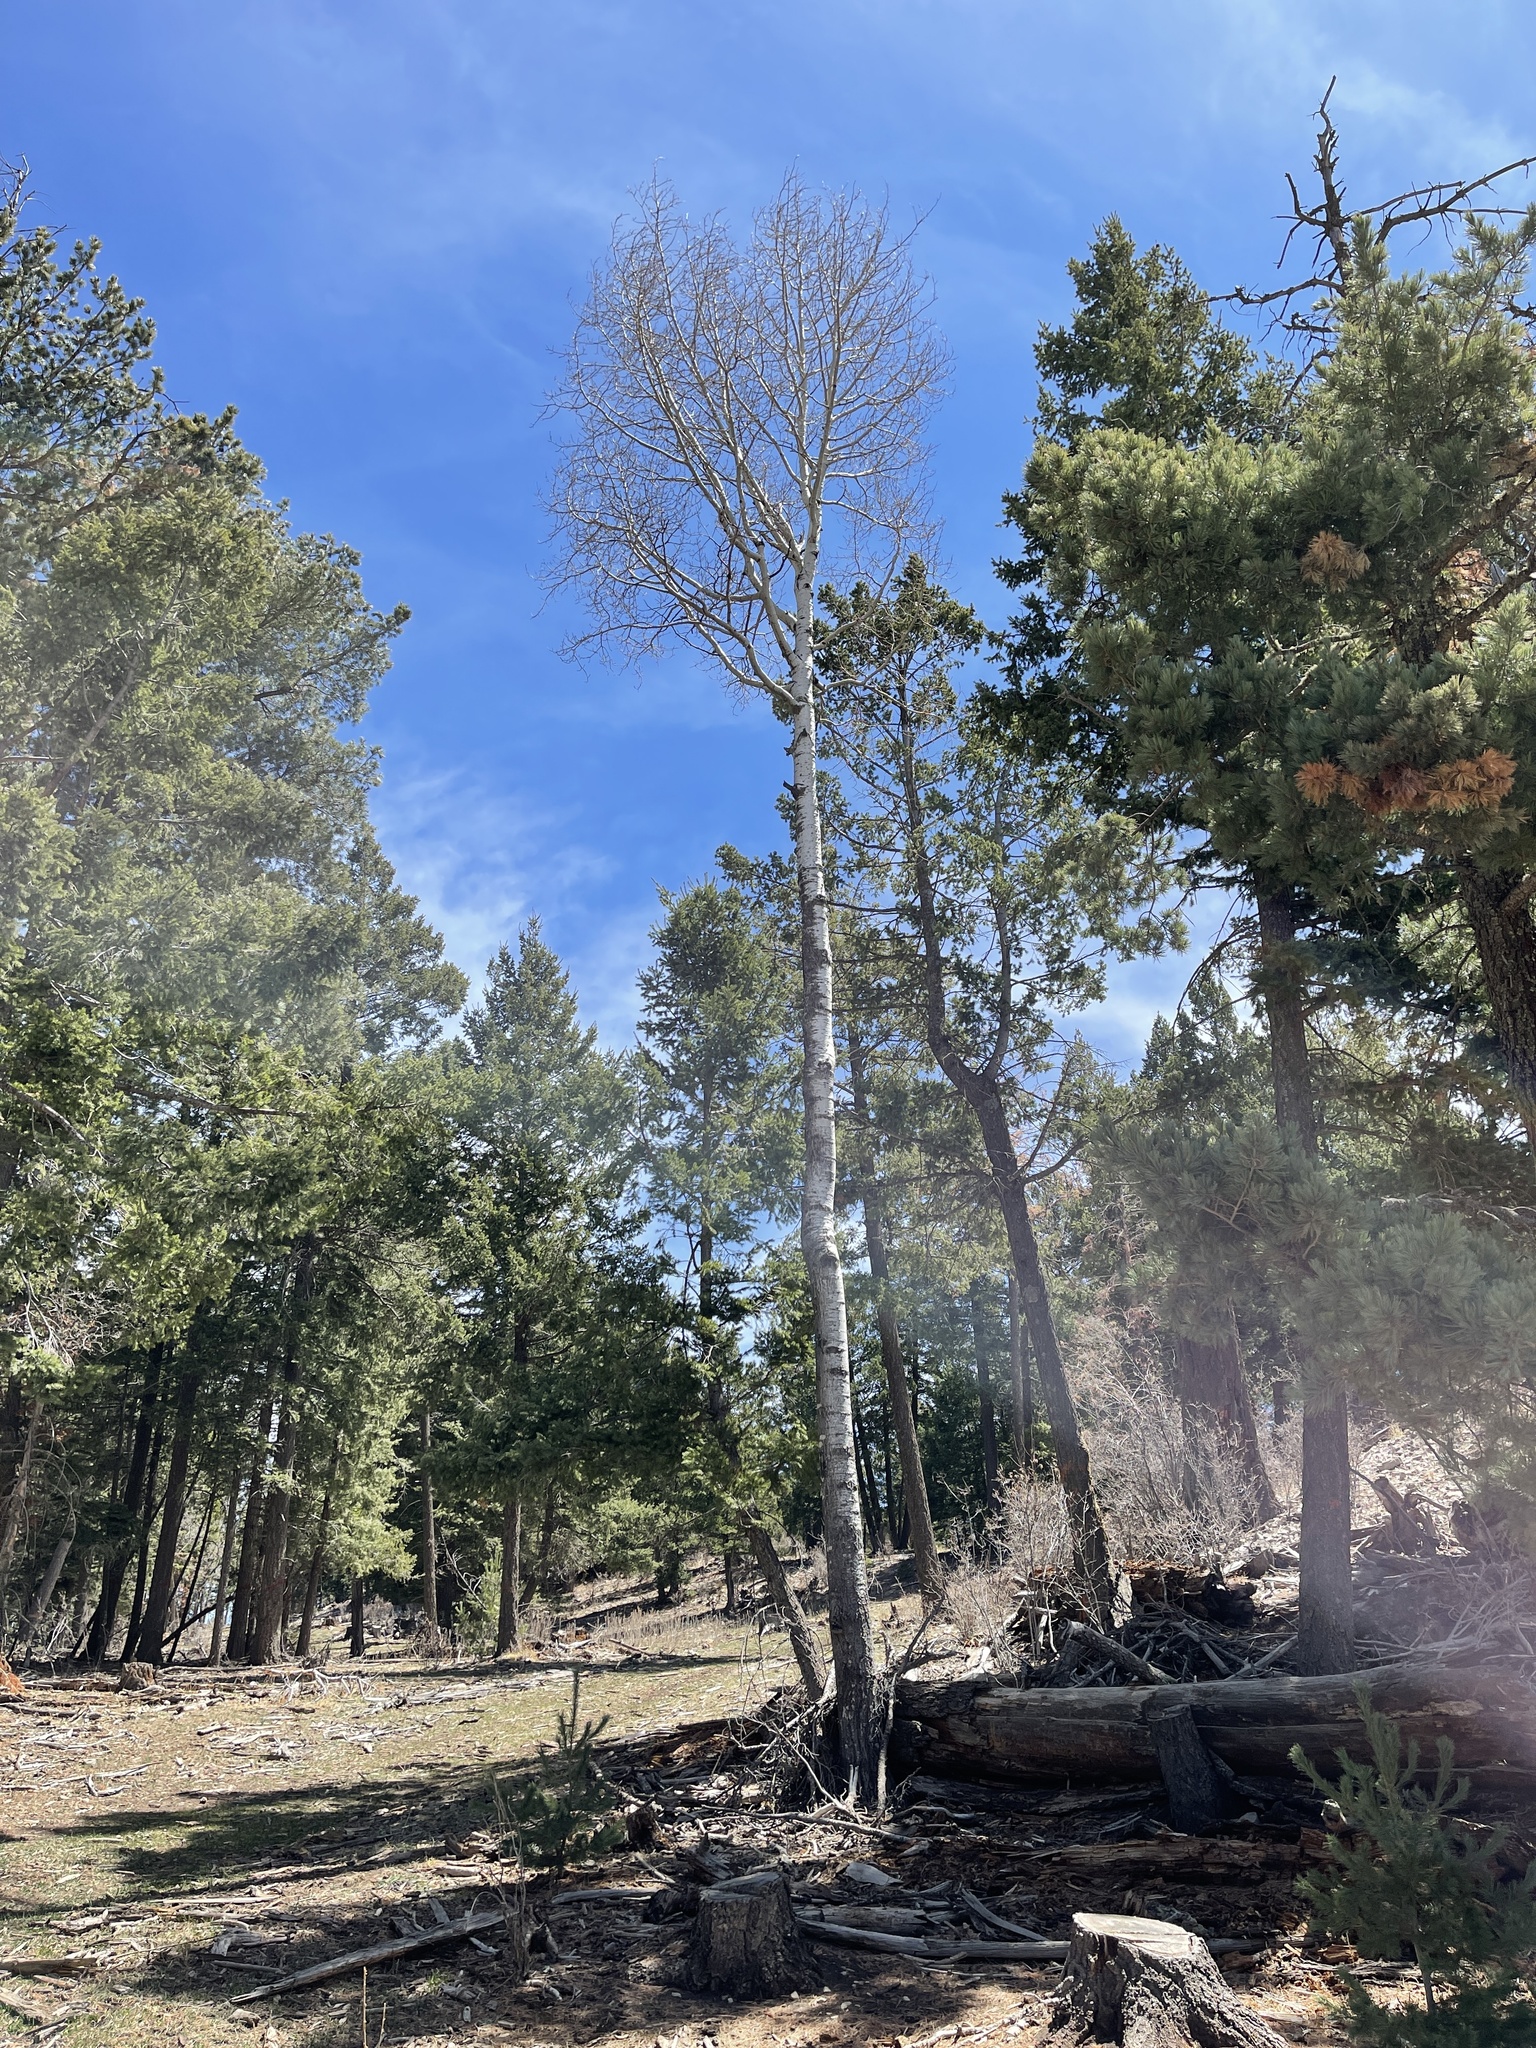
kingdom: Plantae
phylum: Tracheophyta
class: Magnoliopsida
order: Malpighiales
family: Salicaceae
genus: Populus
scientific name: Populus tremuloides
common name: Quaking aspen
